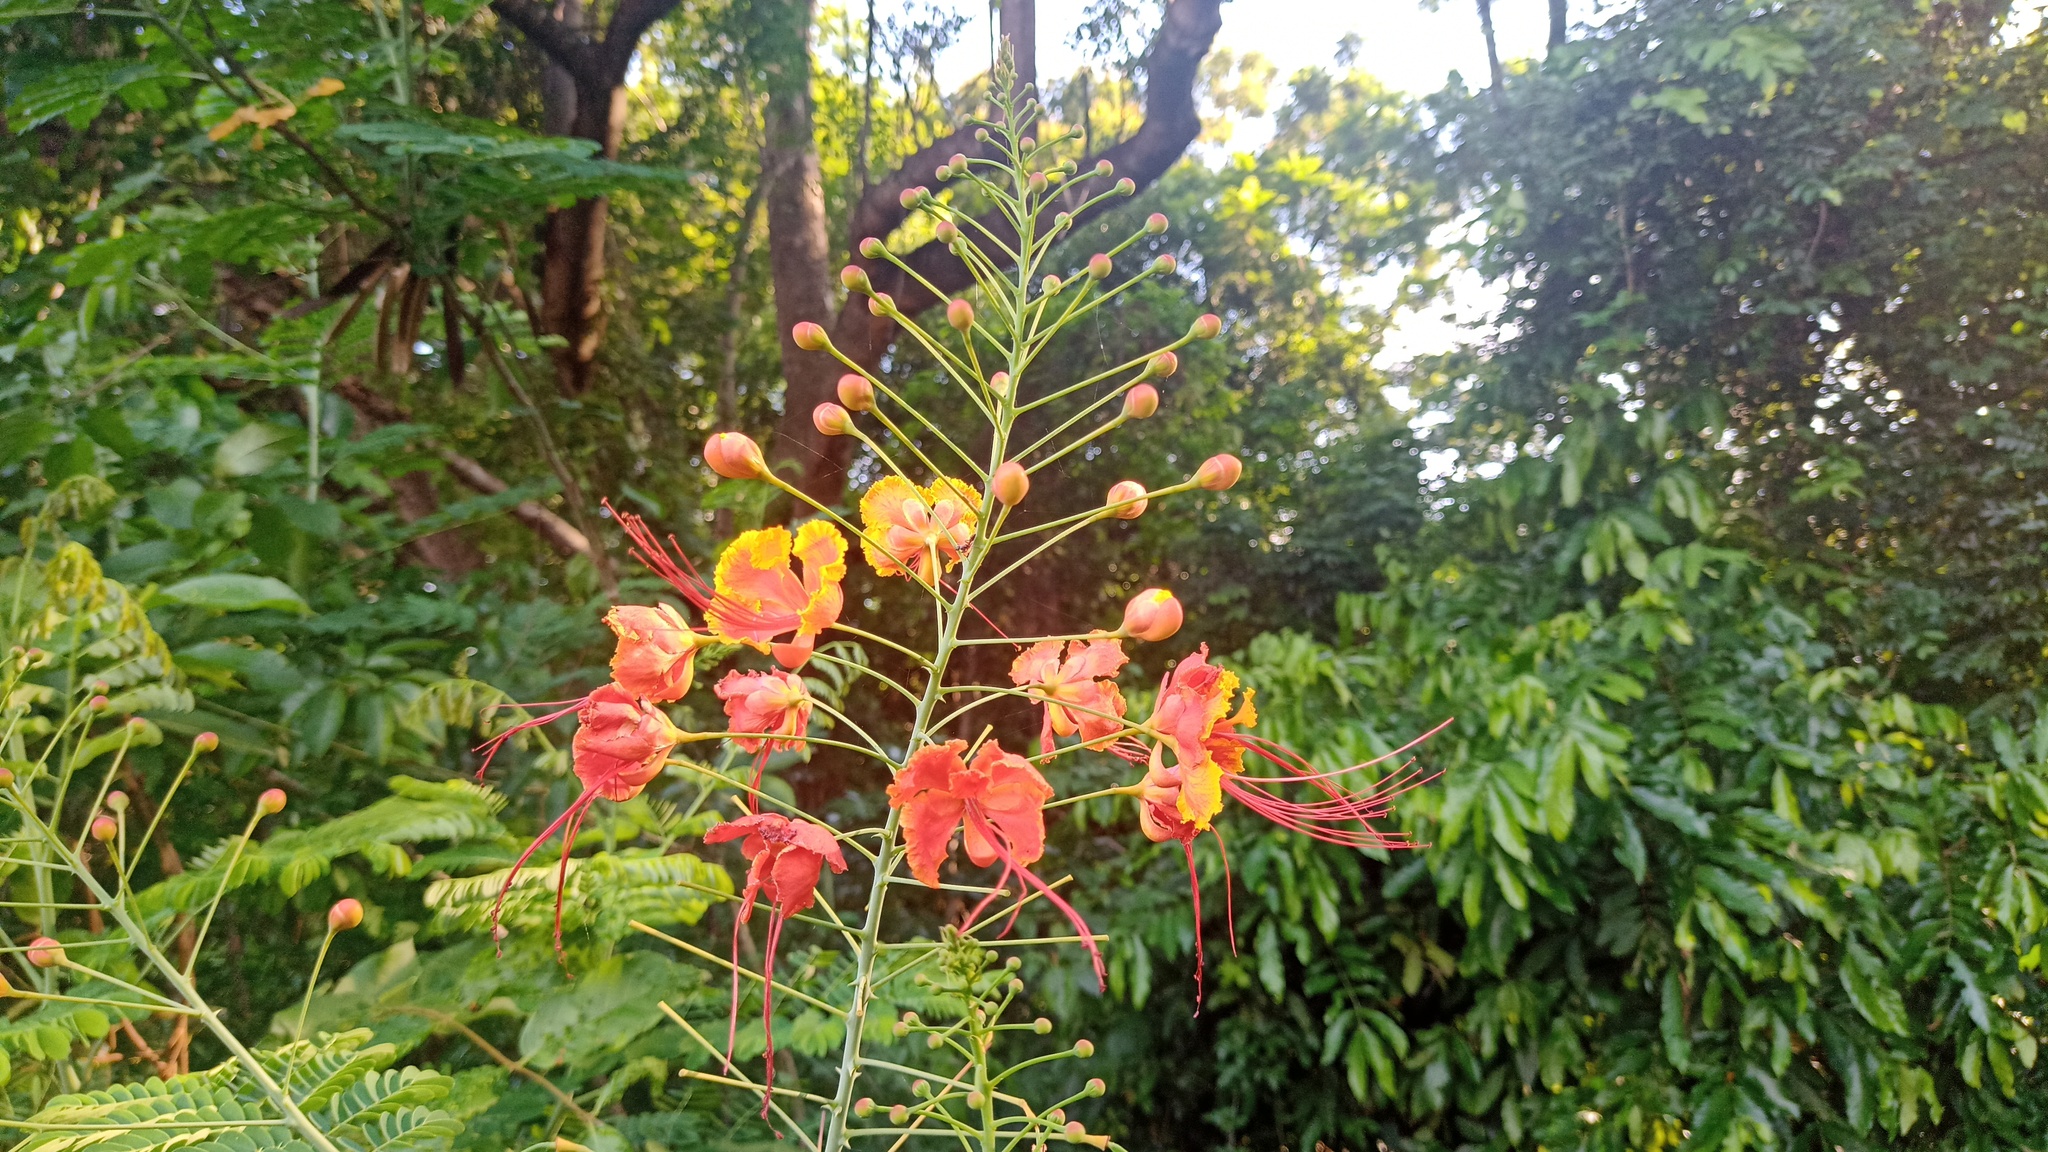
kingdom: Plantae
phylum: Tracheophyta
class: Magnoliopsida
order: Fabales
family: Fabaceae
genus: Caesalpinia
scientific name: Caesalpinia pulcherrima
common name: Pride-of-barbados
